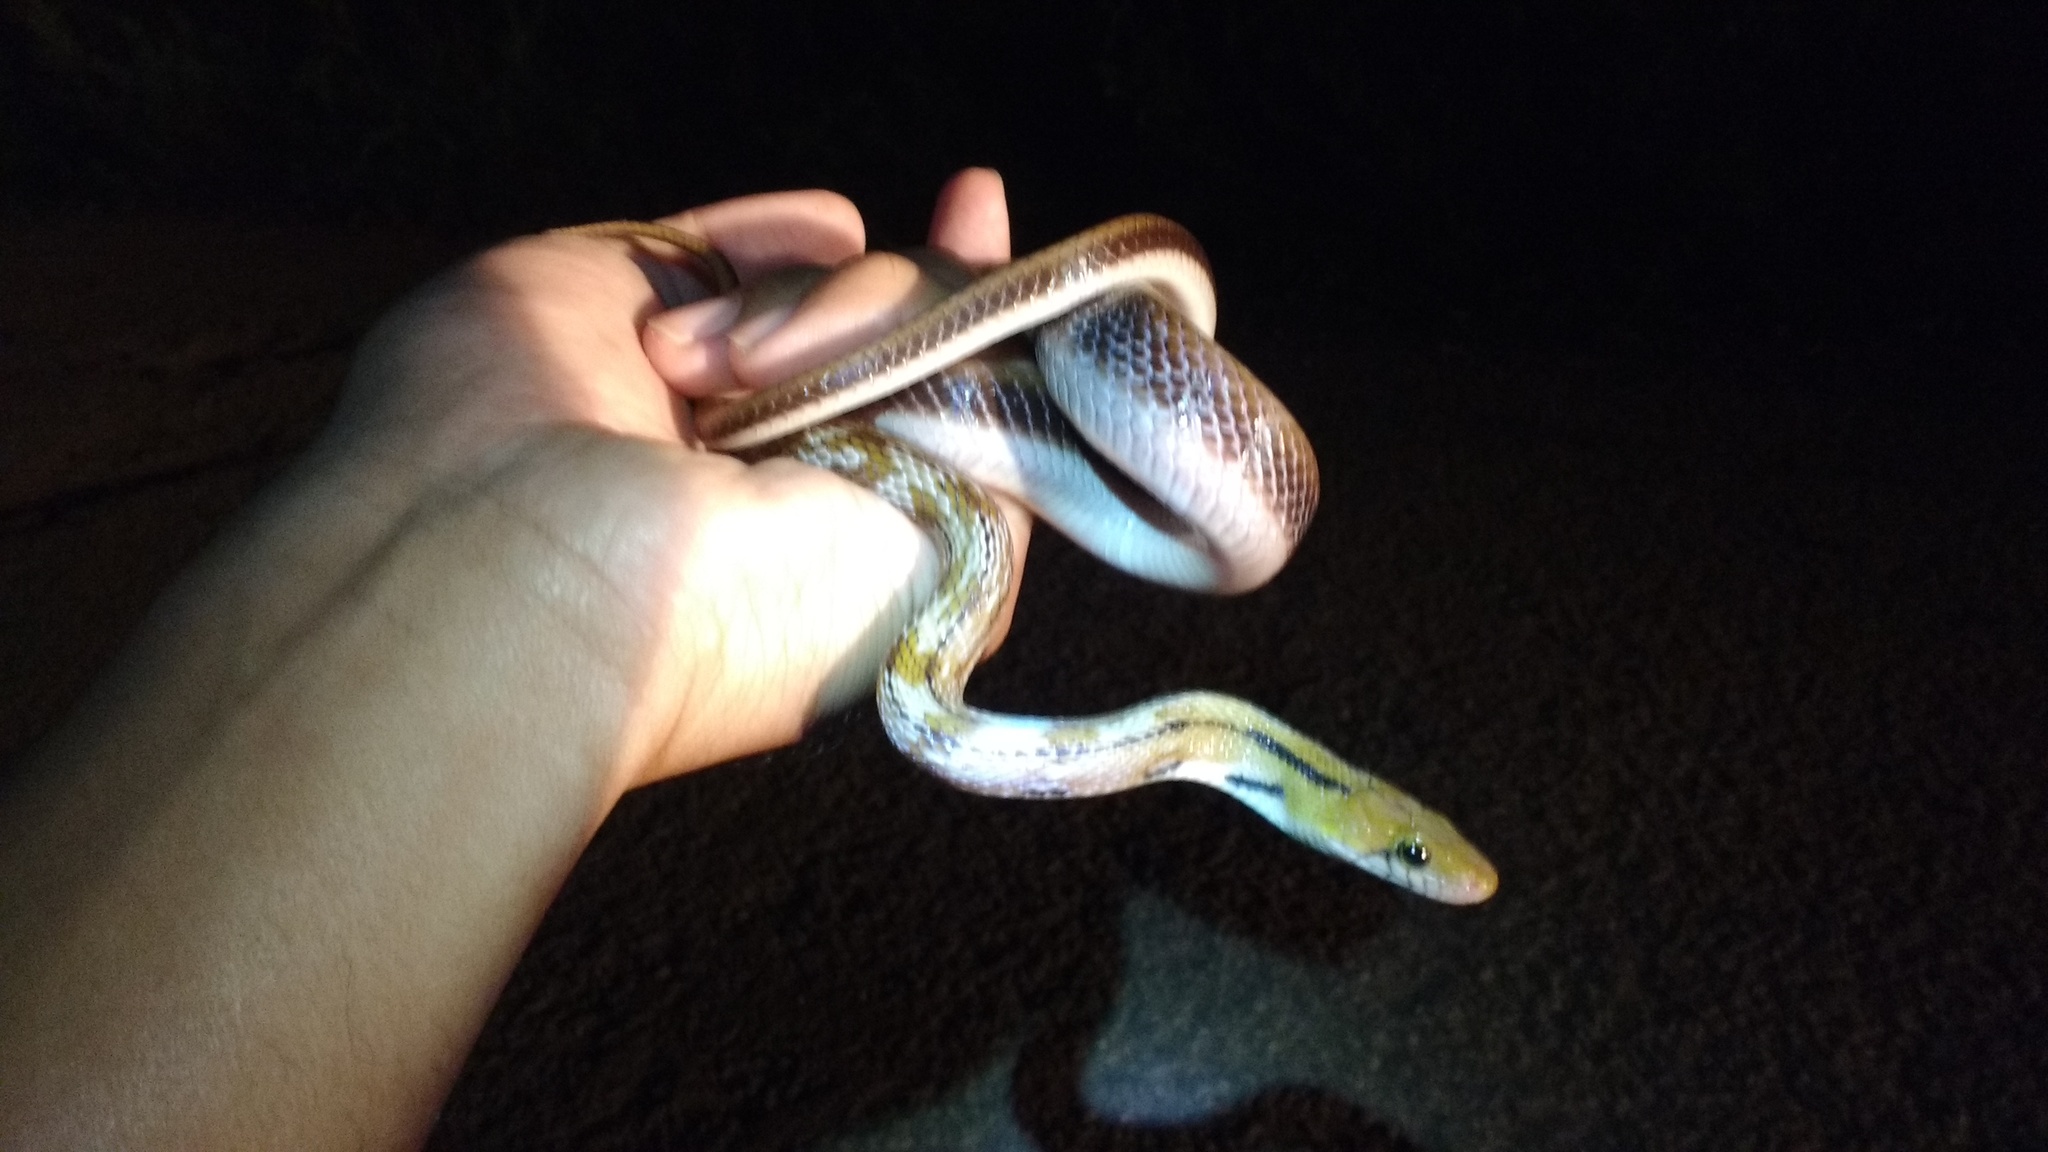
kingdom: Animalia
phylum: Chordata
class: Squamata
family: Colubridae
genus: Coelognathus
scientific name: Coelognathus helena
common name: Trinket snake
